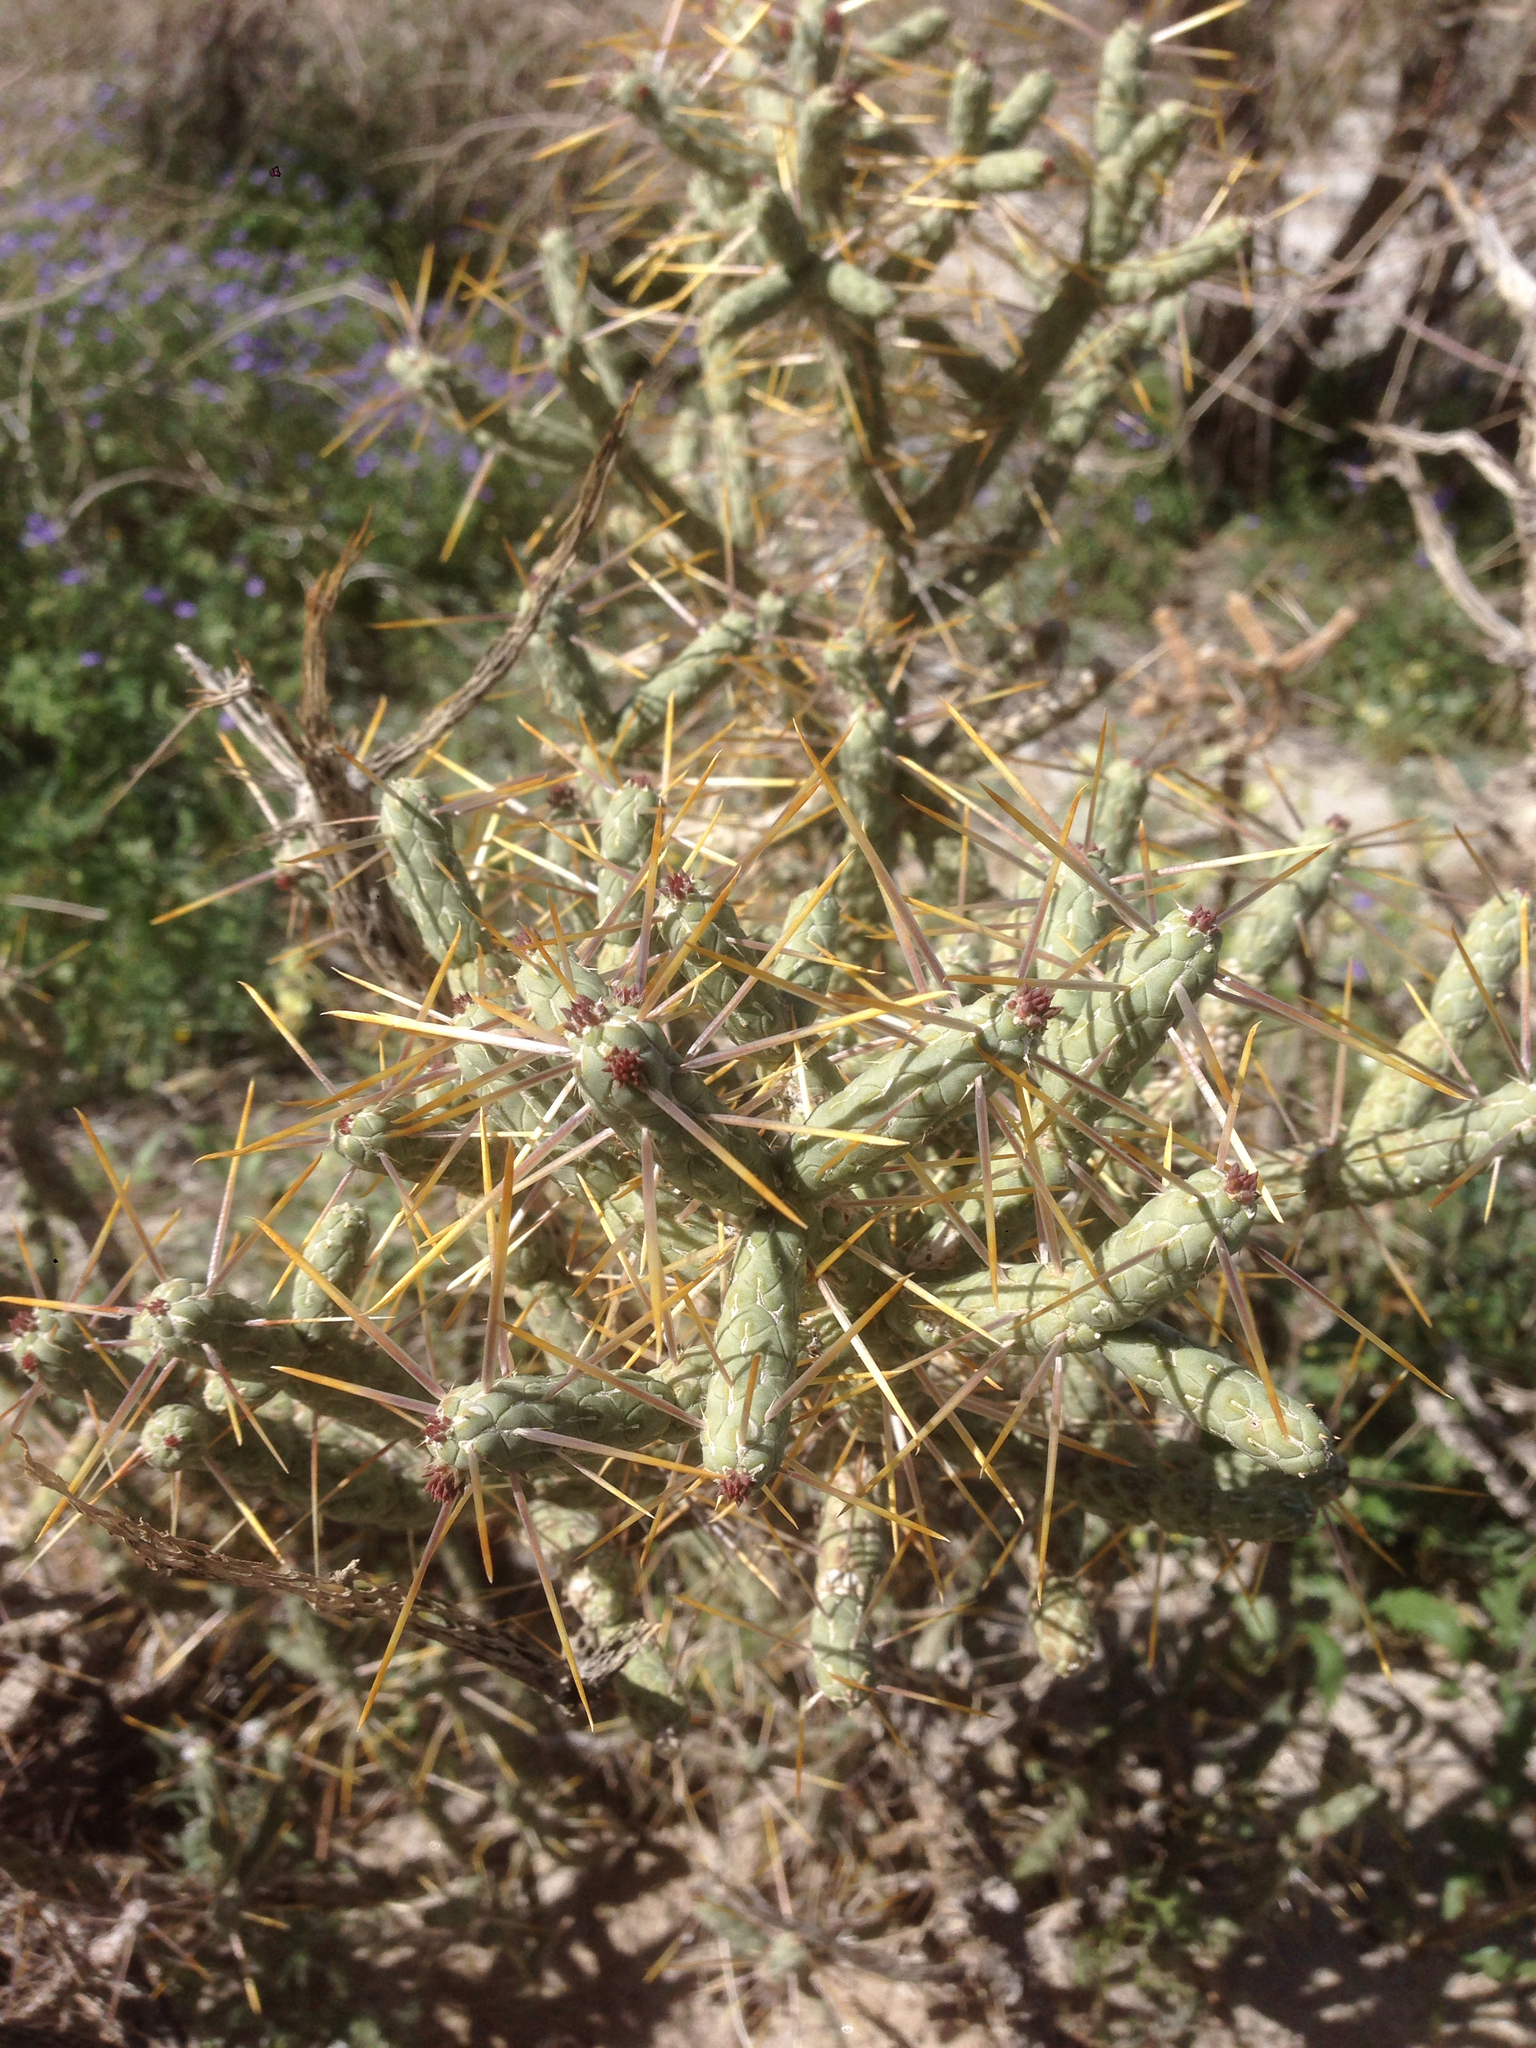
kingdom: Plantae
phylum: Tracheophyta
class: Magnoliopsida
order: Caryophyllales
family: Cactaceae
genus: Cylindropuntia
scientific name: Cylindropuntia ramosissima
